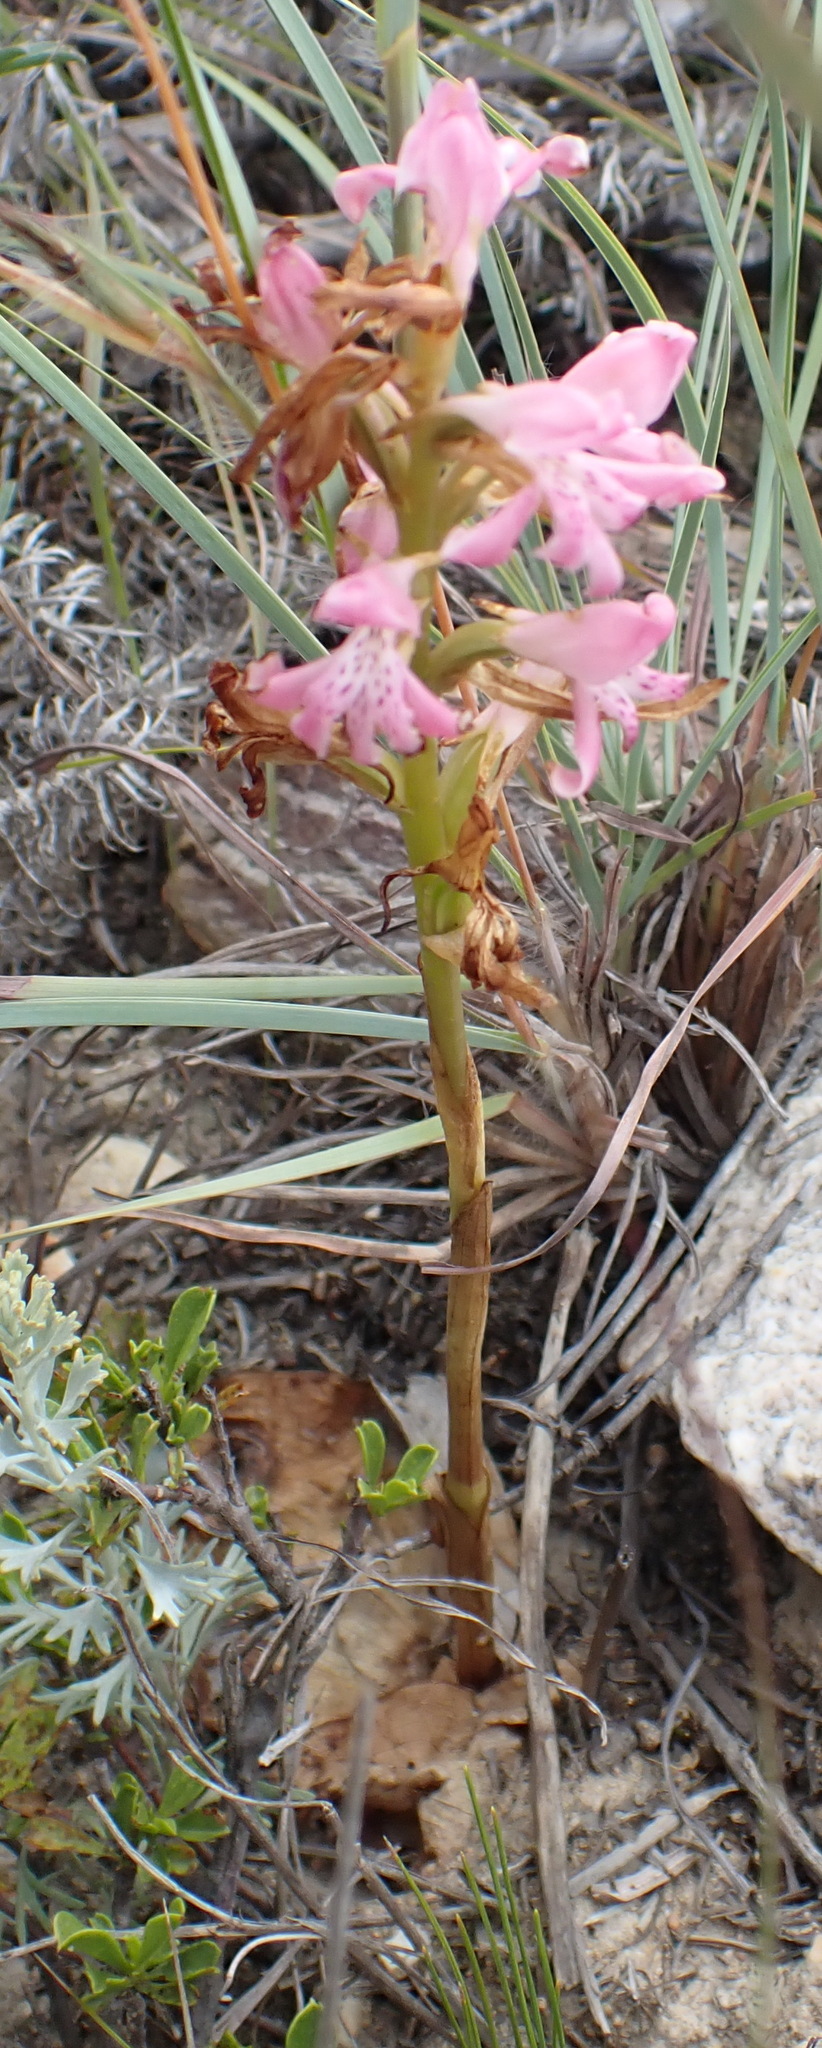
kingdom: Plantae
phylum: Tracheophyta
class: Liliopsida
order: Asparagales
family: Orchidaceae
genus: Satyrium
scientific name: Satyrium erectum
